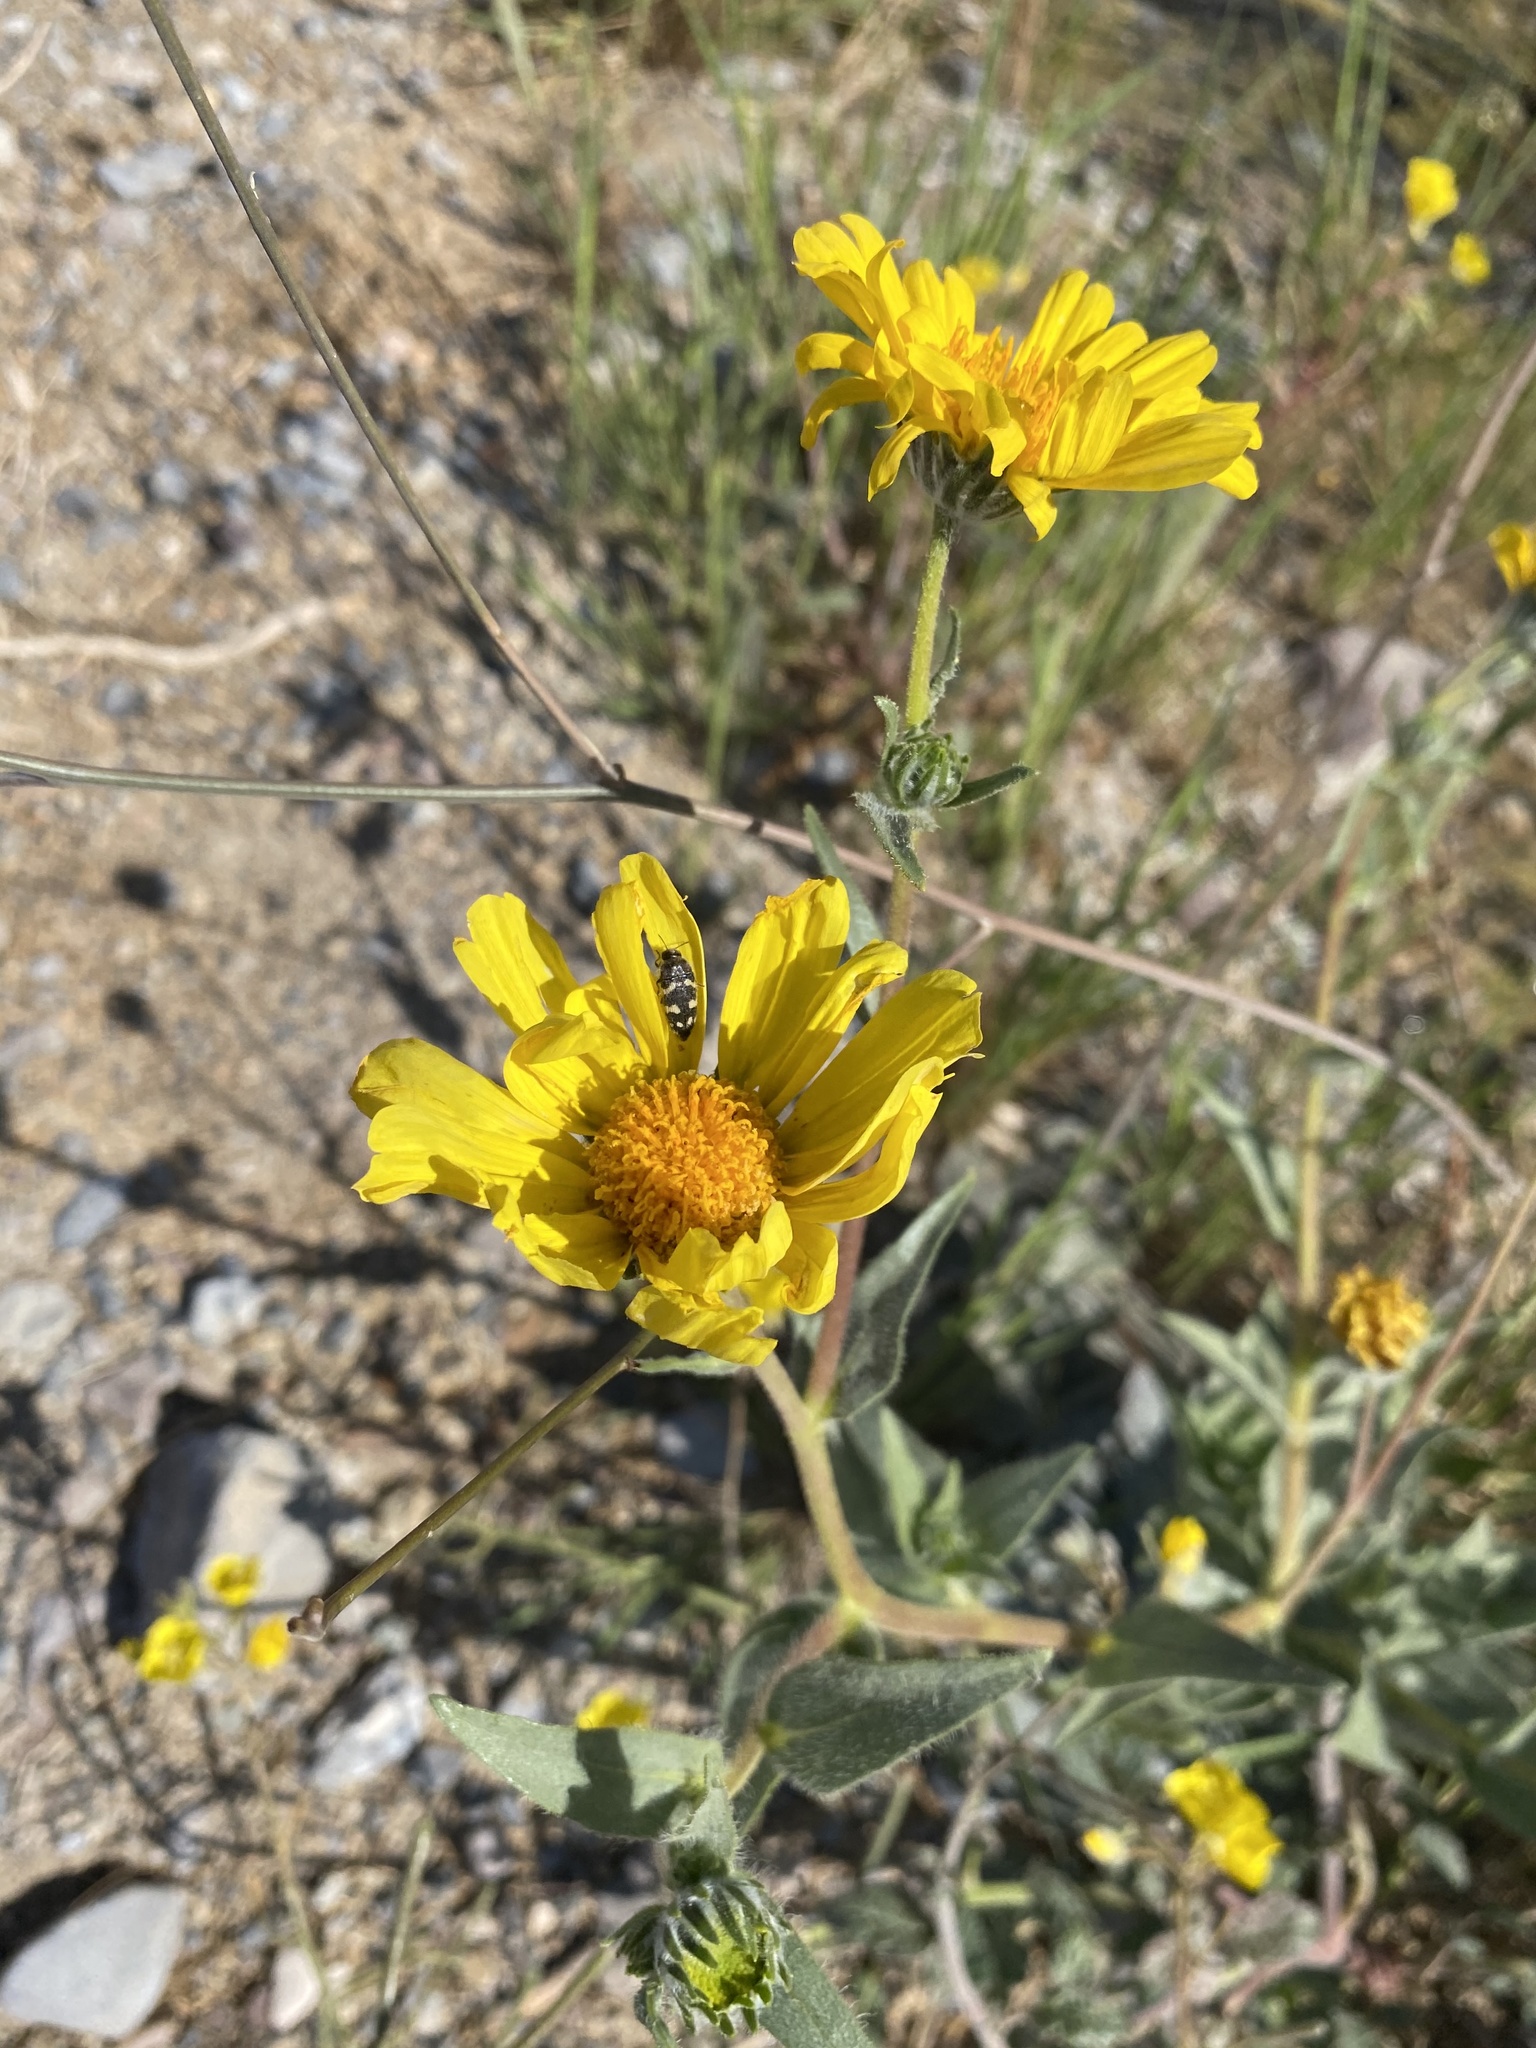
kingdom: Plantae
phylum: Tracheophyta
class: Magnoliopsida
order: Asterales
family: Asteraceae
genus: Geraea
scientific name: Geraea canescens
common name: Desert-gold
